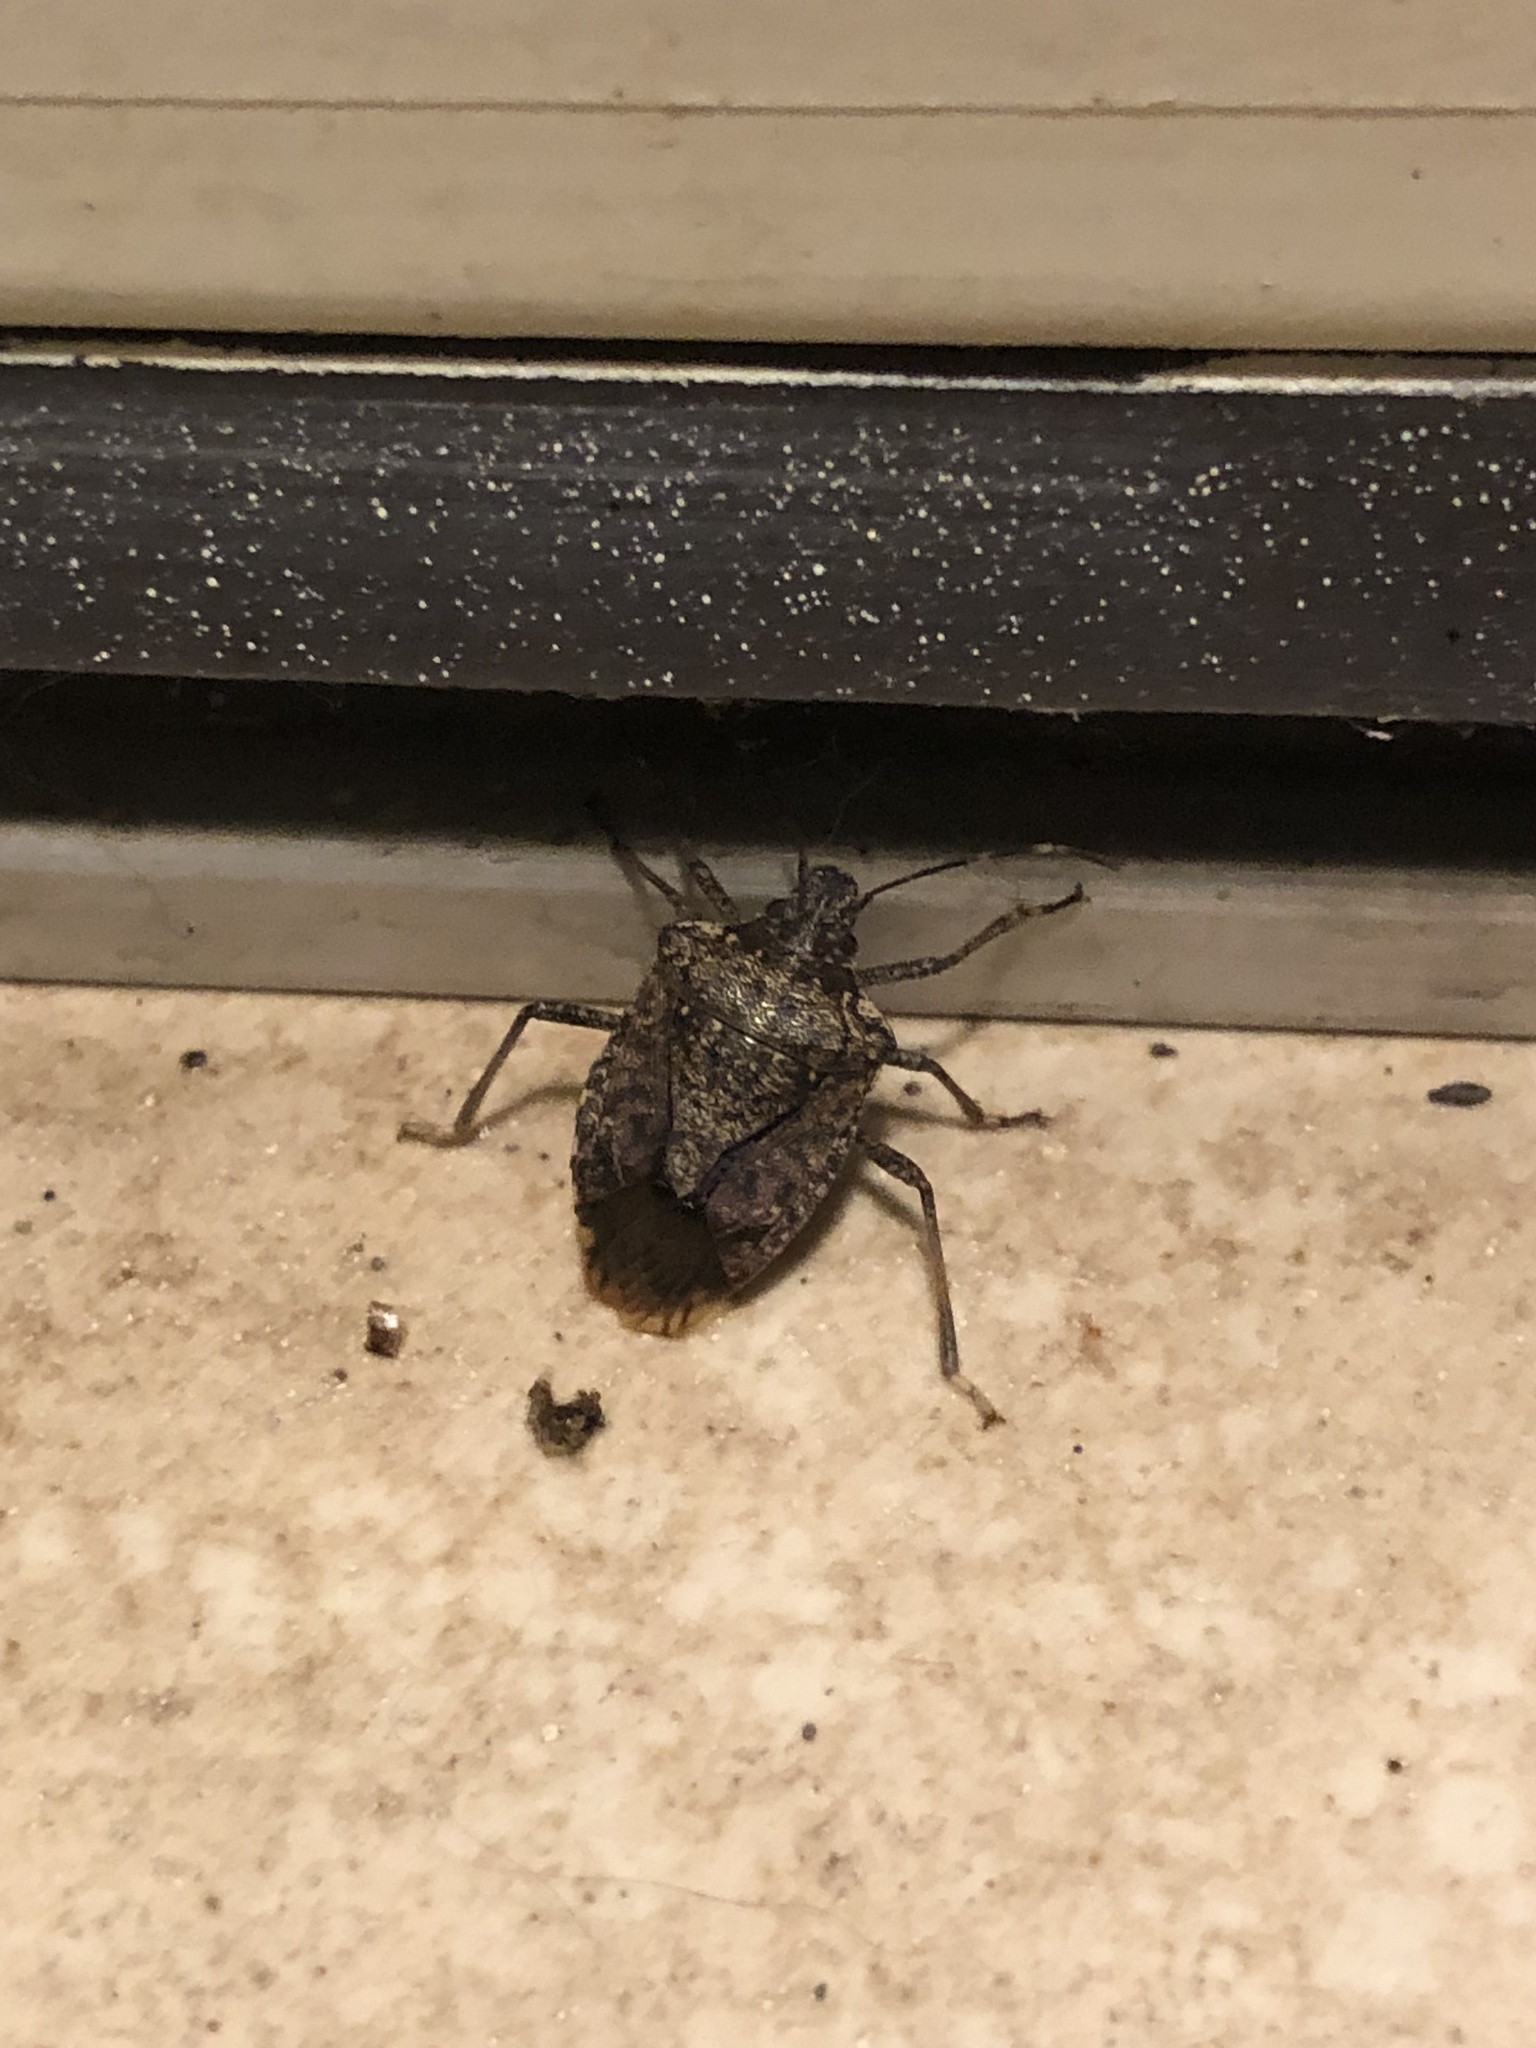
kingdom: Animalia
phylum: Arthropoda
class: Insecta
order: Hemiptera
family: Pentatomidae
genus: Halyomorpha
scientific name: Halyomorpha halys
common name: Brown marmorated stink bug
